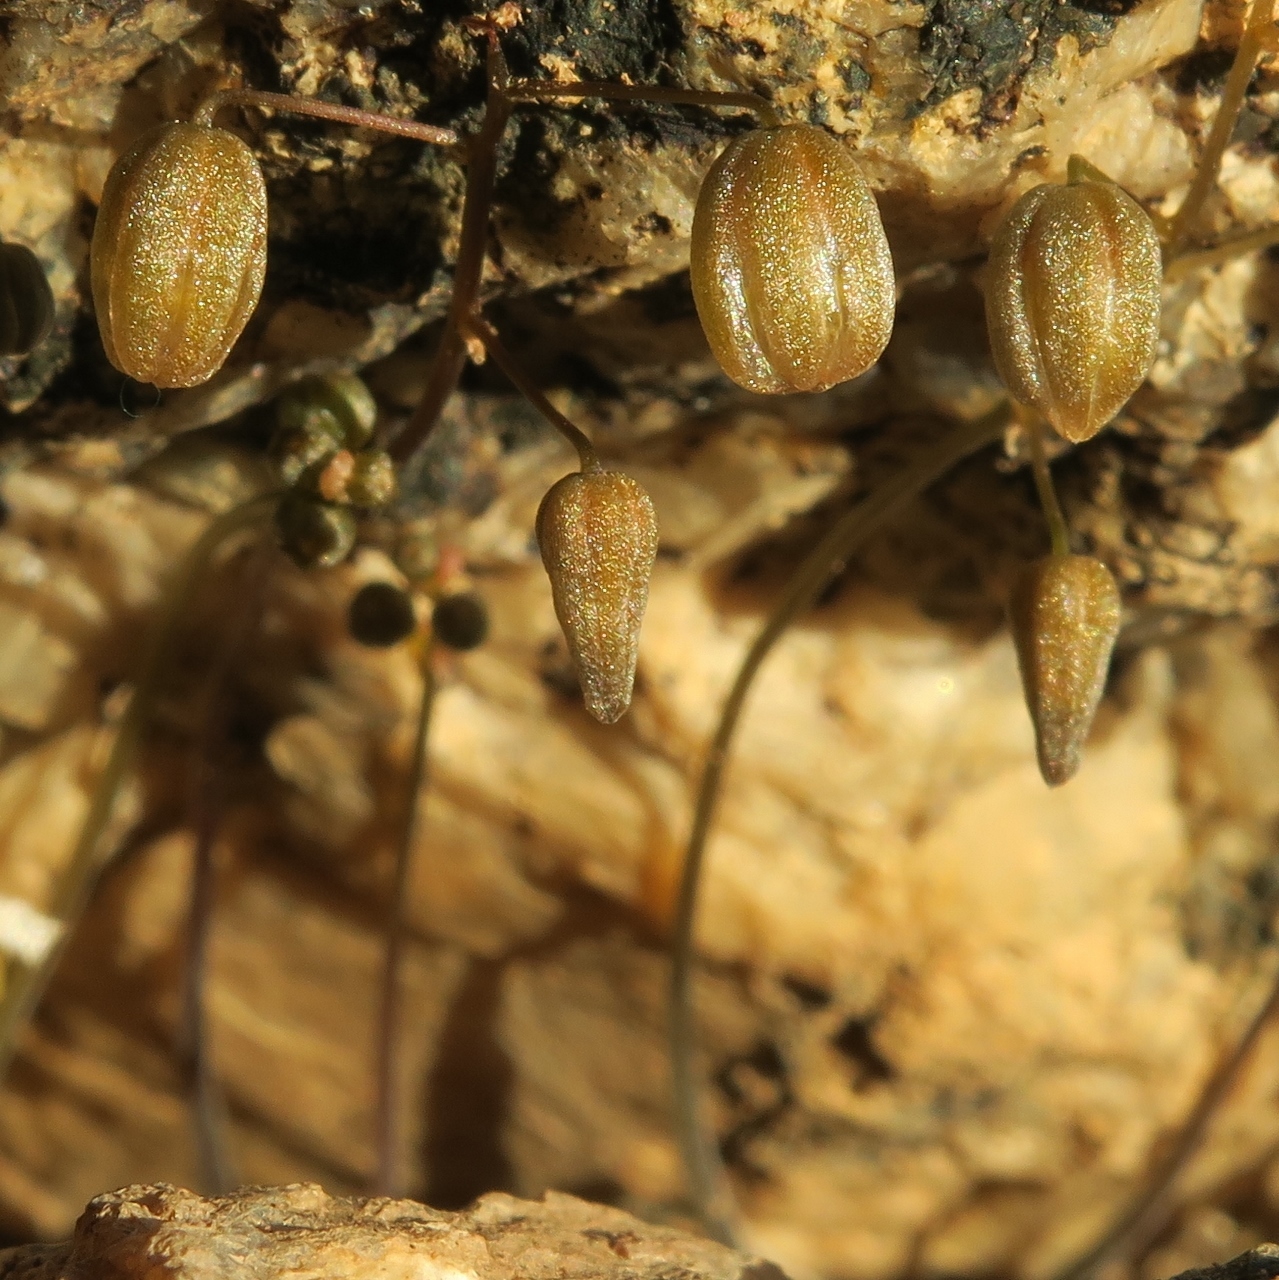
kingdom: Plantae
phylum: Tracheophyta
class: Liliopsida
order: Asparagales
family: Asparagaceae
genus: Drimia
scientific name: Drimia platyphylla
